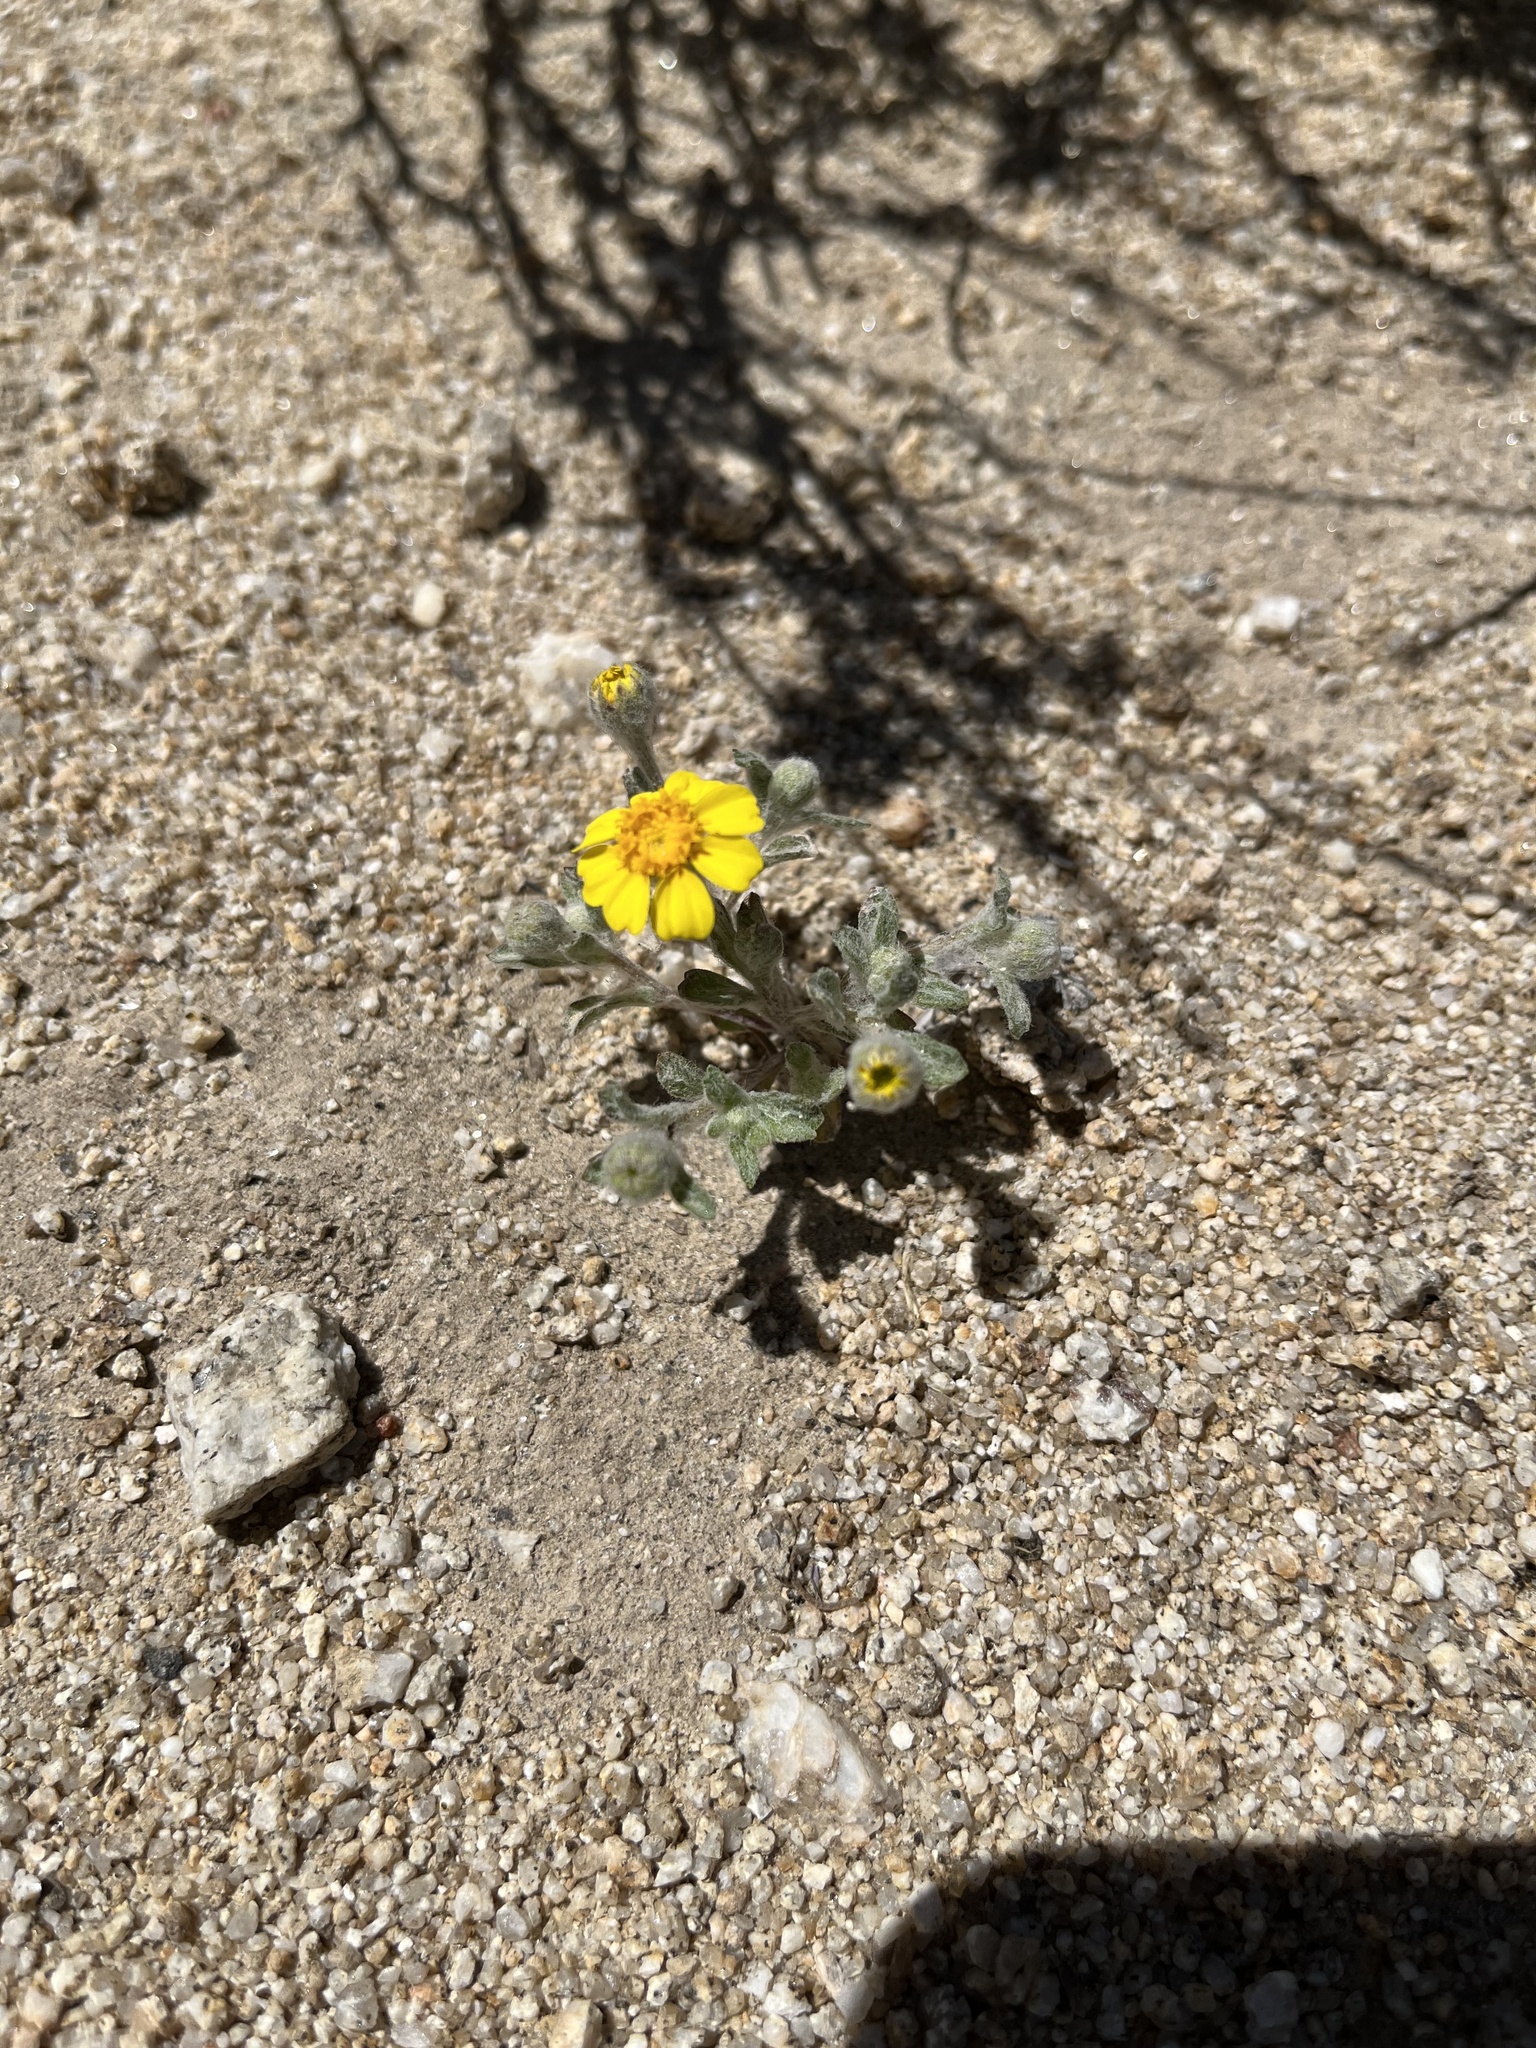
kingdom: Plantae
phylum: Tracheophyta
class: Magnoliopsida
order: Asterales
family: Asteraceae
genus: Eriophyllum
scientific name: Eriophyllum wallacei
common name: Wallace's woolly daisy
